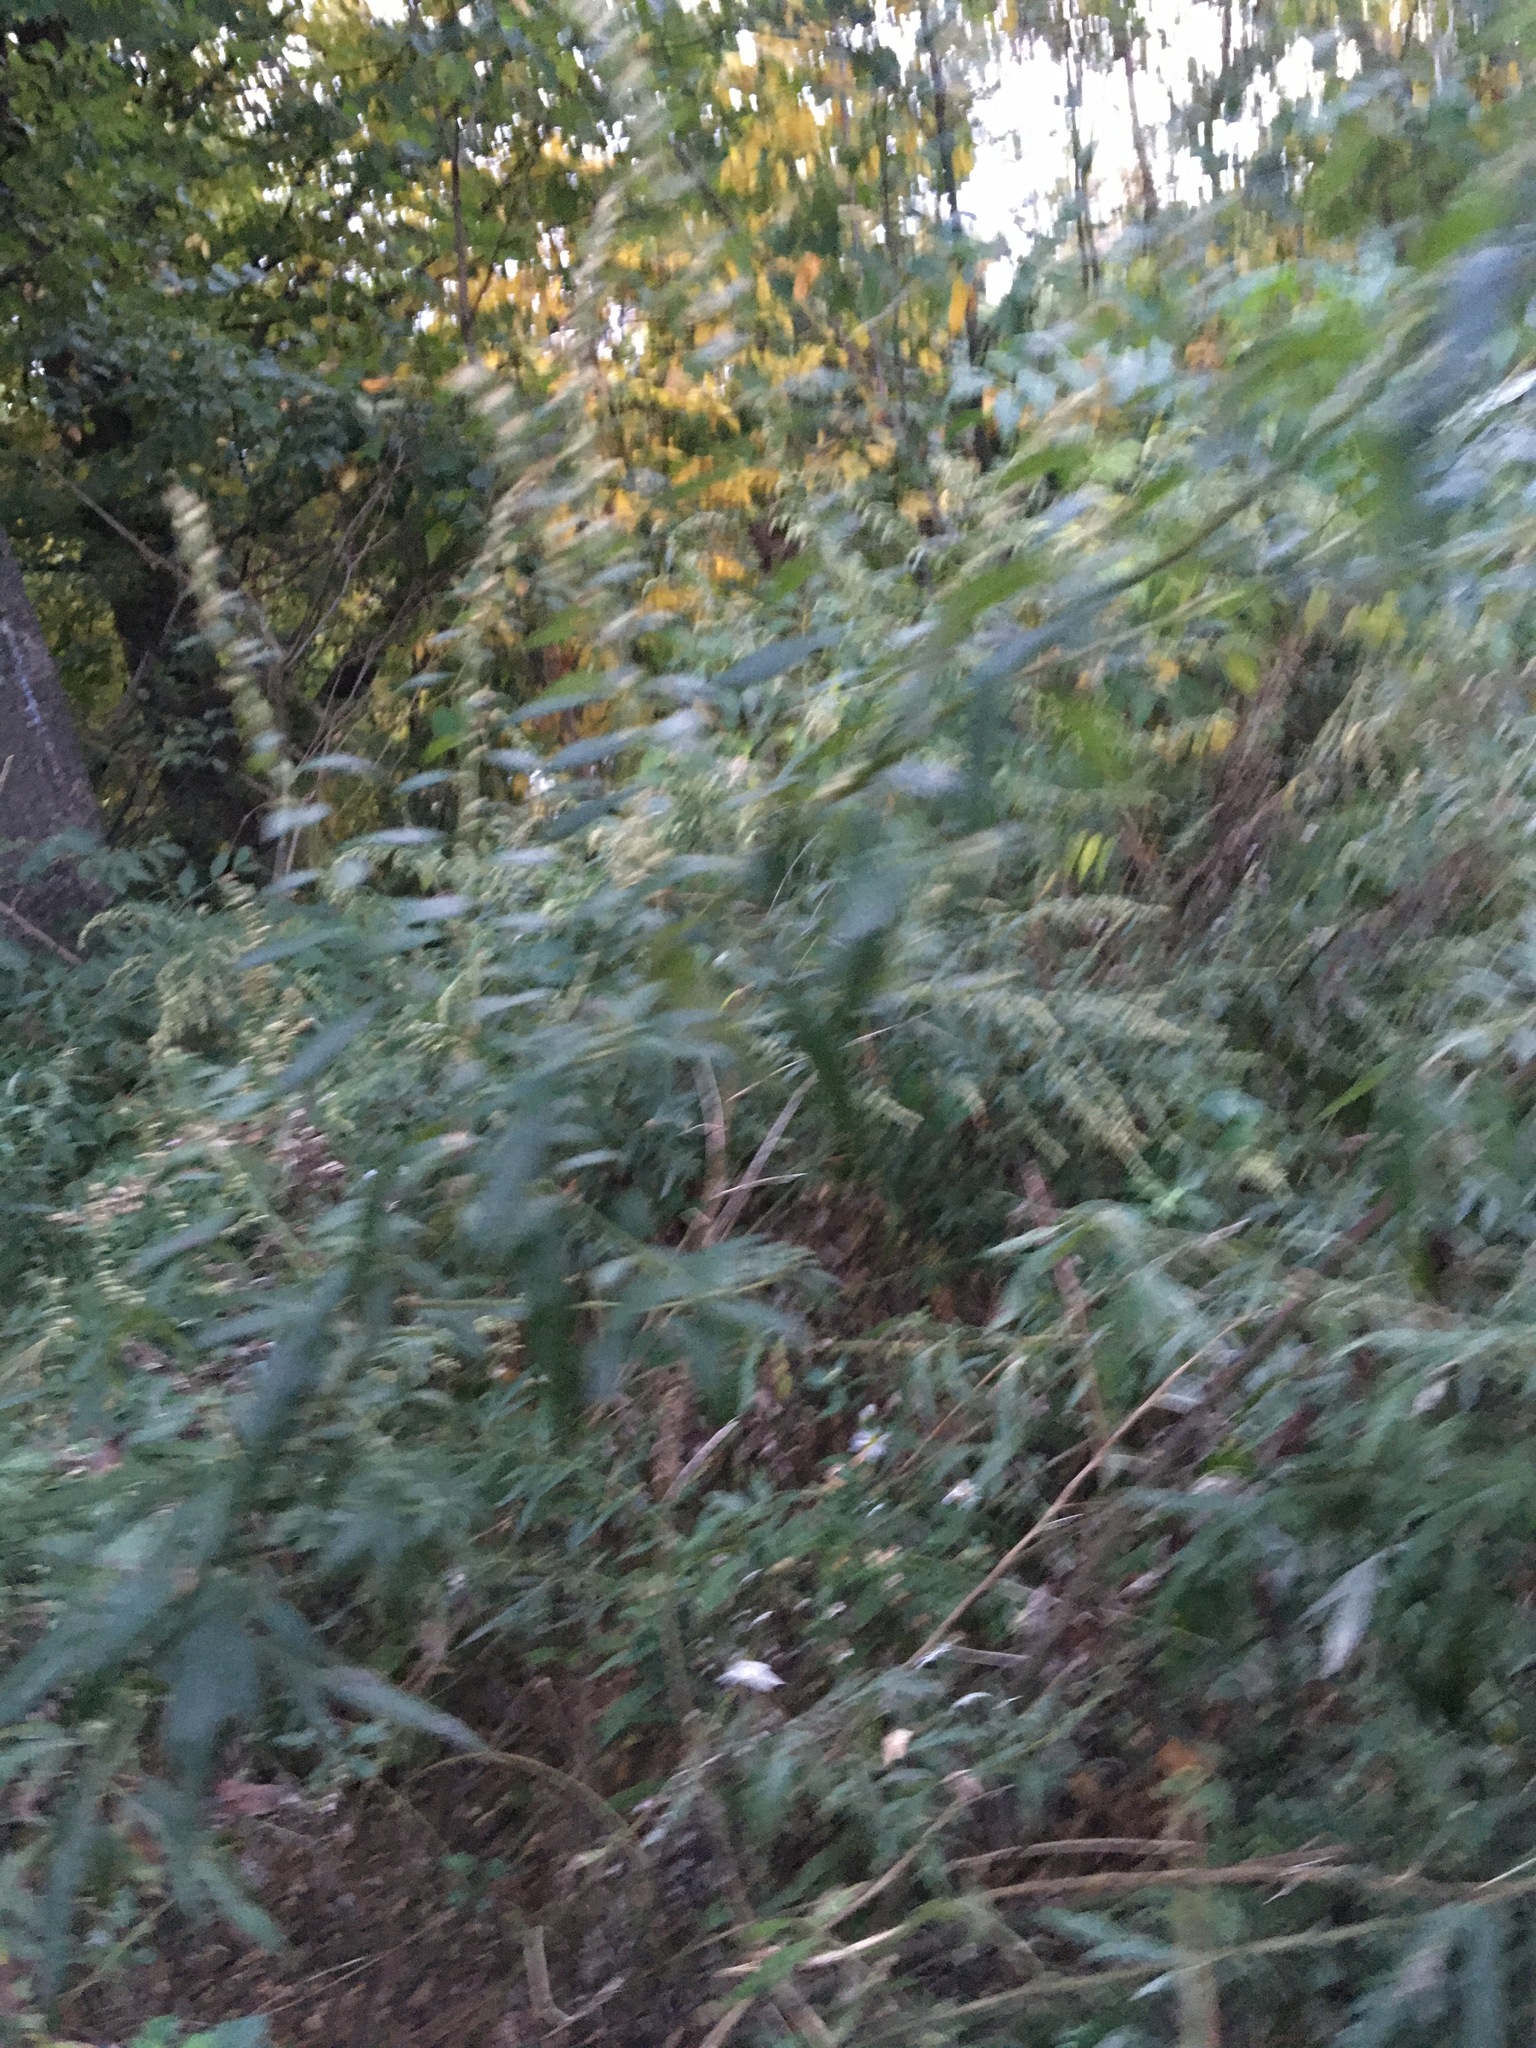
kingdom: Plantae
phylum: Tracheophyta
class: Magnoliopsida
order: Asterales
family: Asteraceae
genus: Artemisia
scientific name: Artemisia vulgaris
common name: Mugwort
